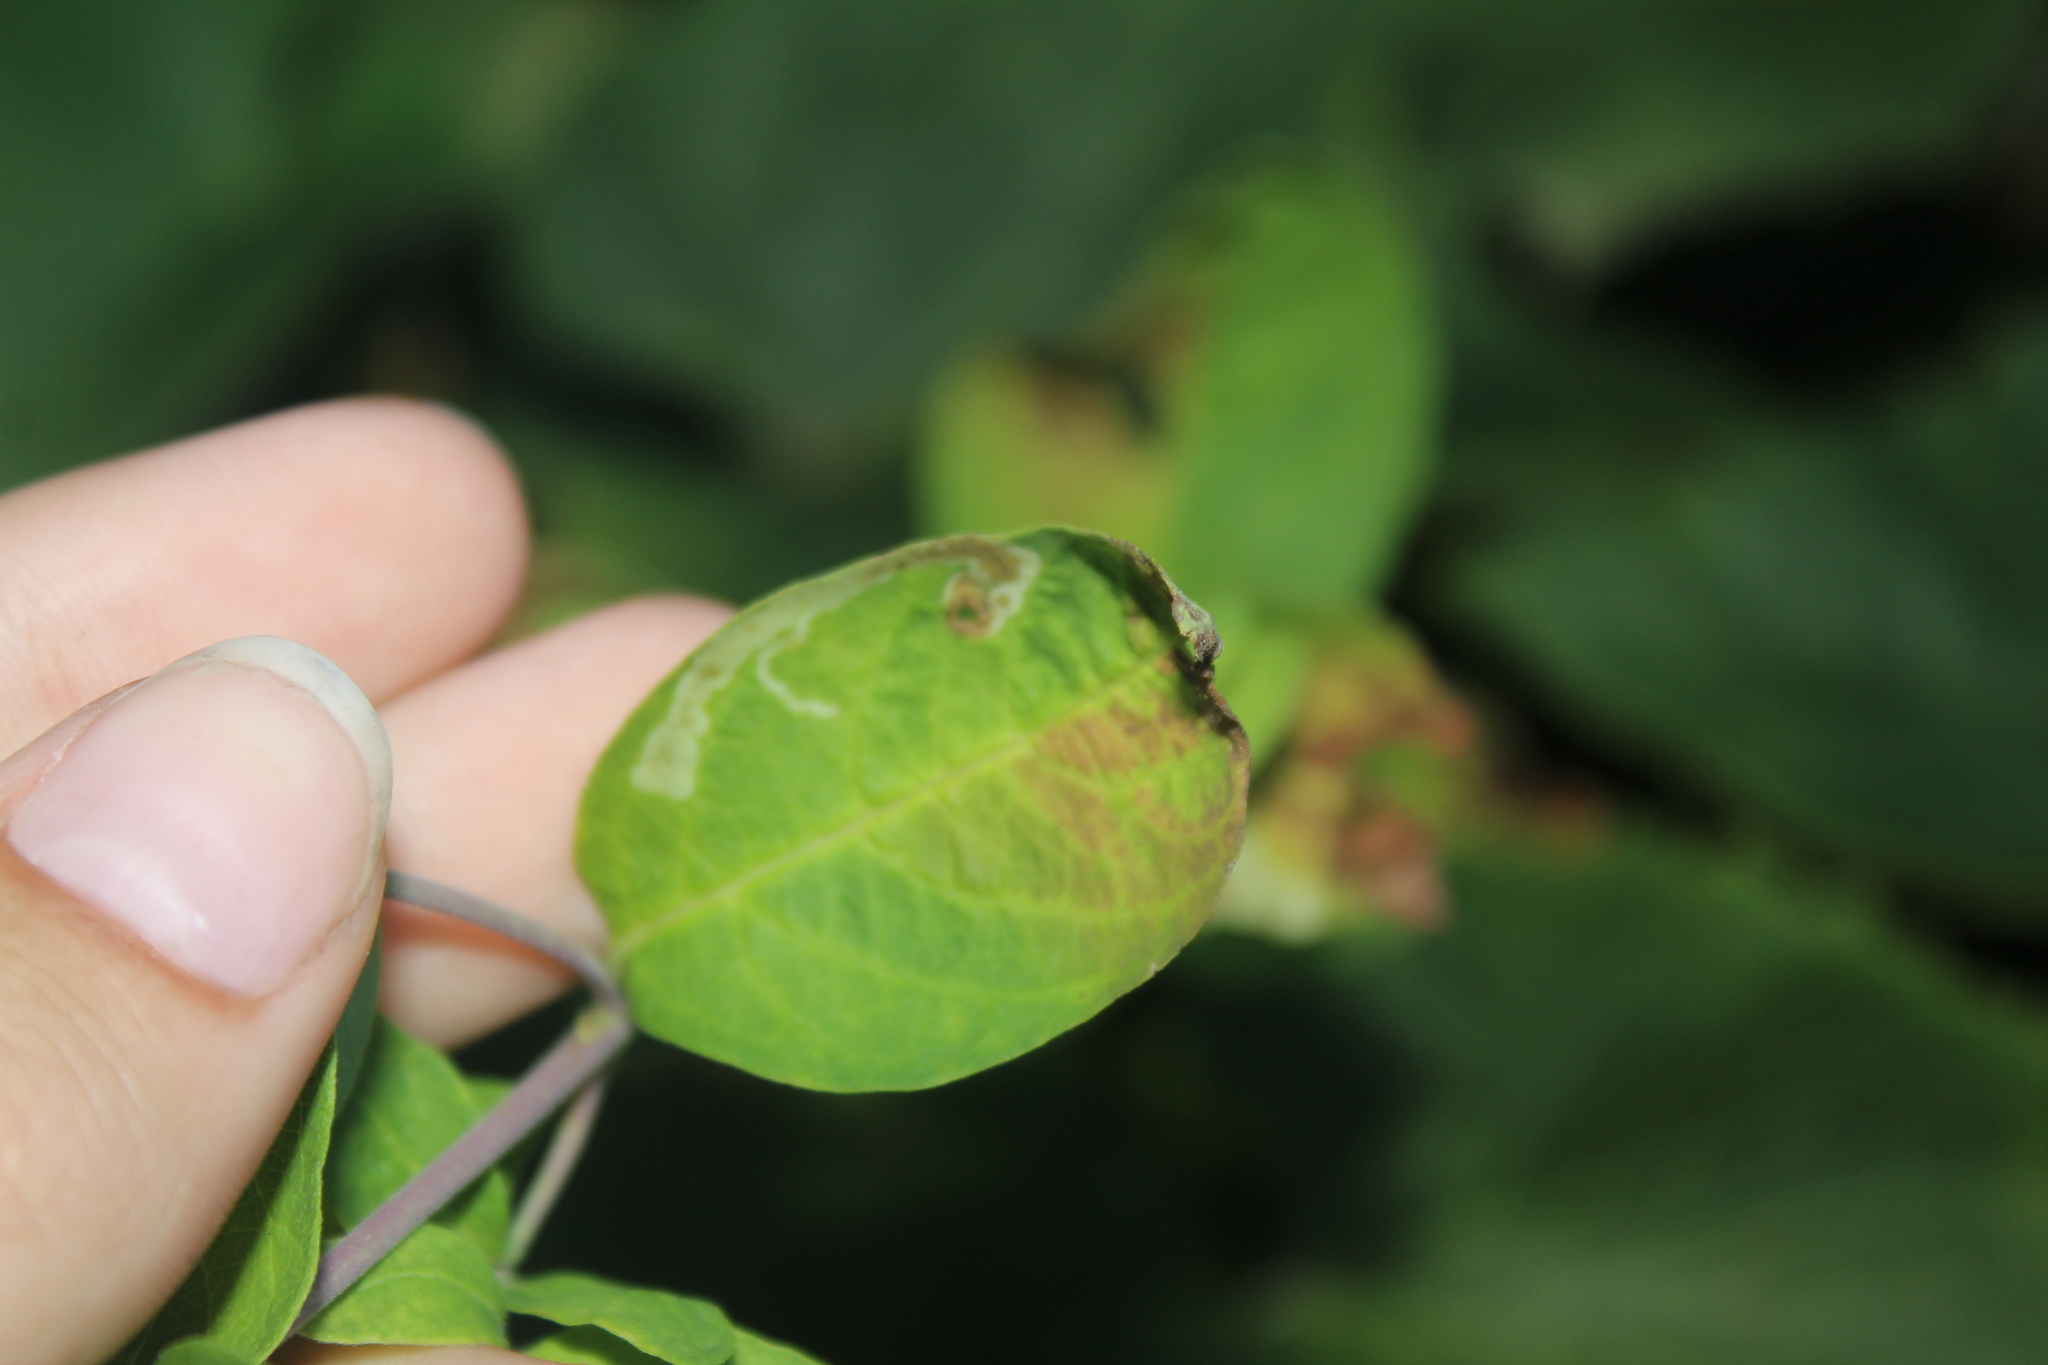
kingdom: Animalia
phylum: Arthropoda
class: Insecta
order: Diptera
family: Agromyzidae
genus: Aulagromyza
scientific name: Aulagromyza
